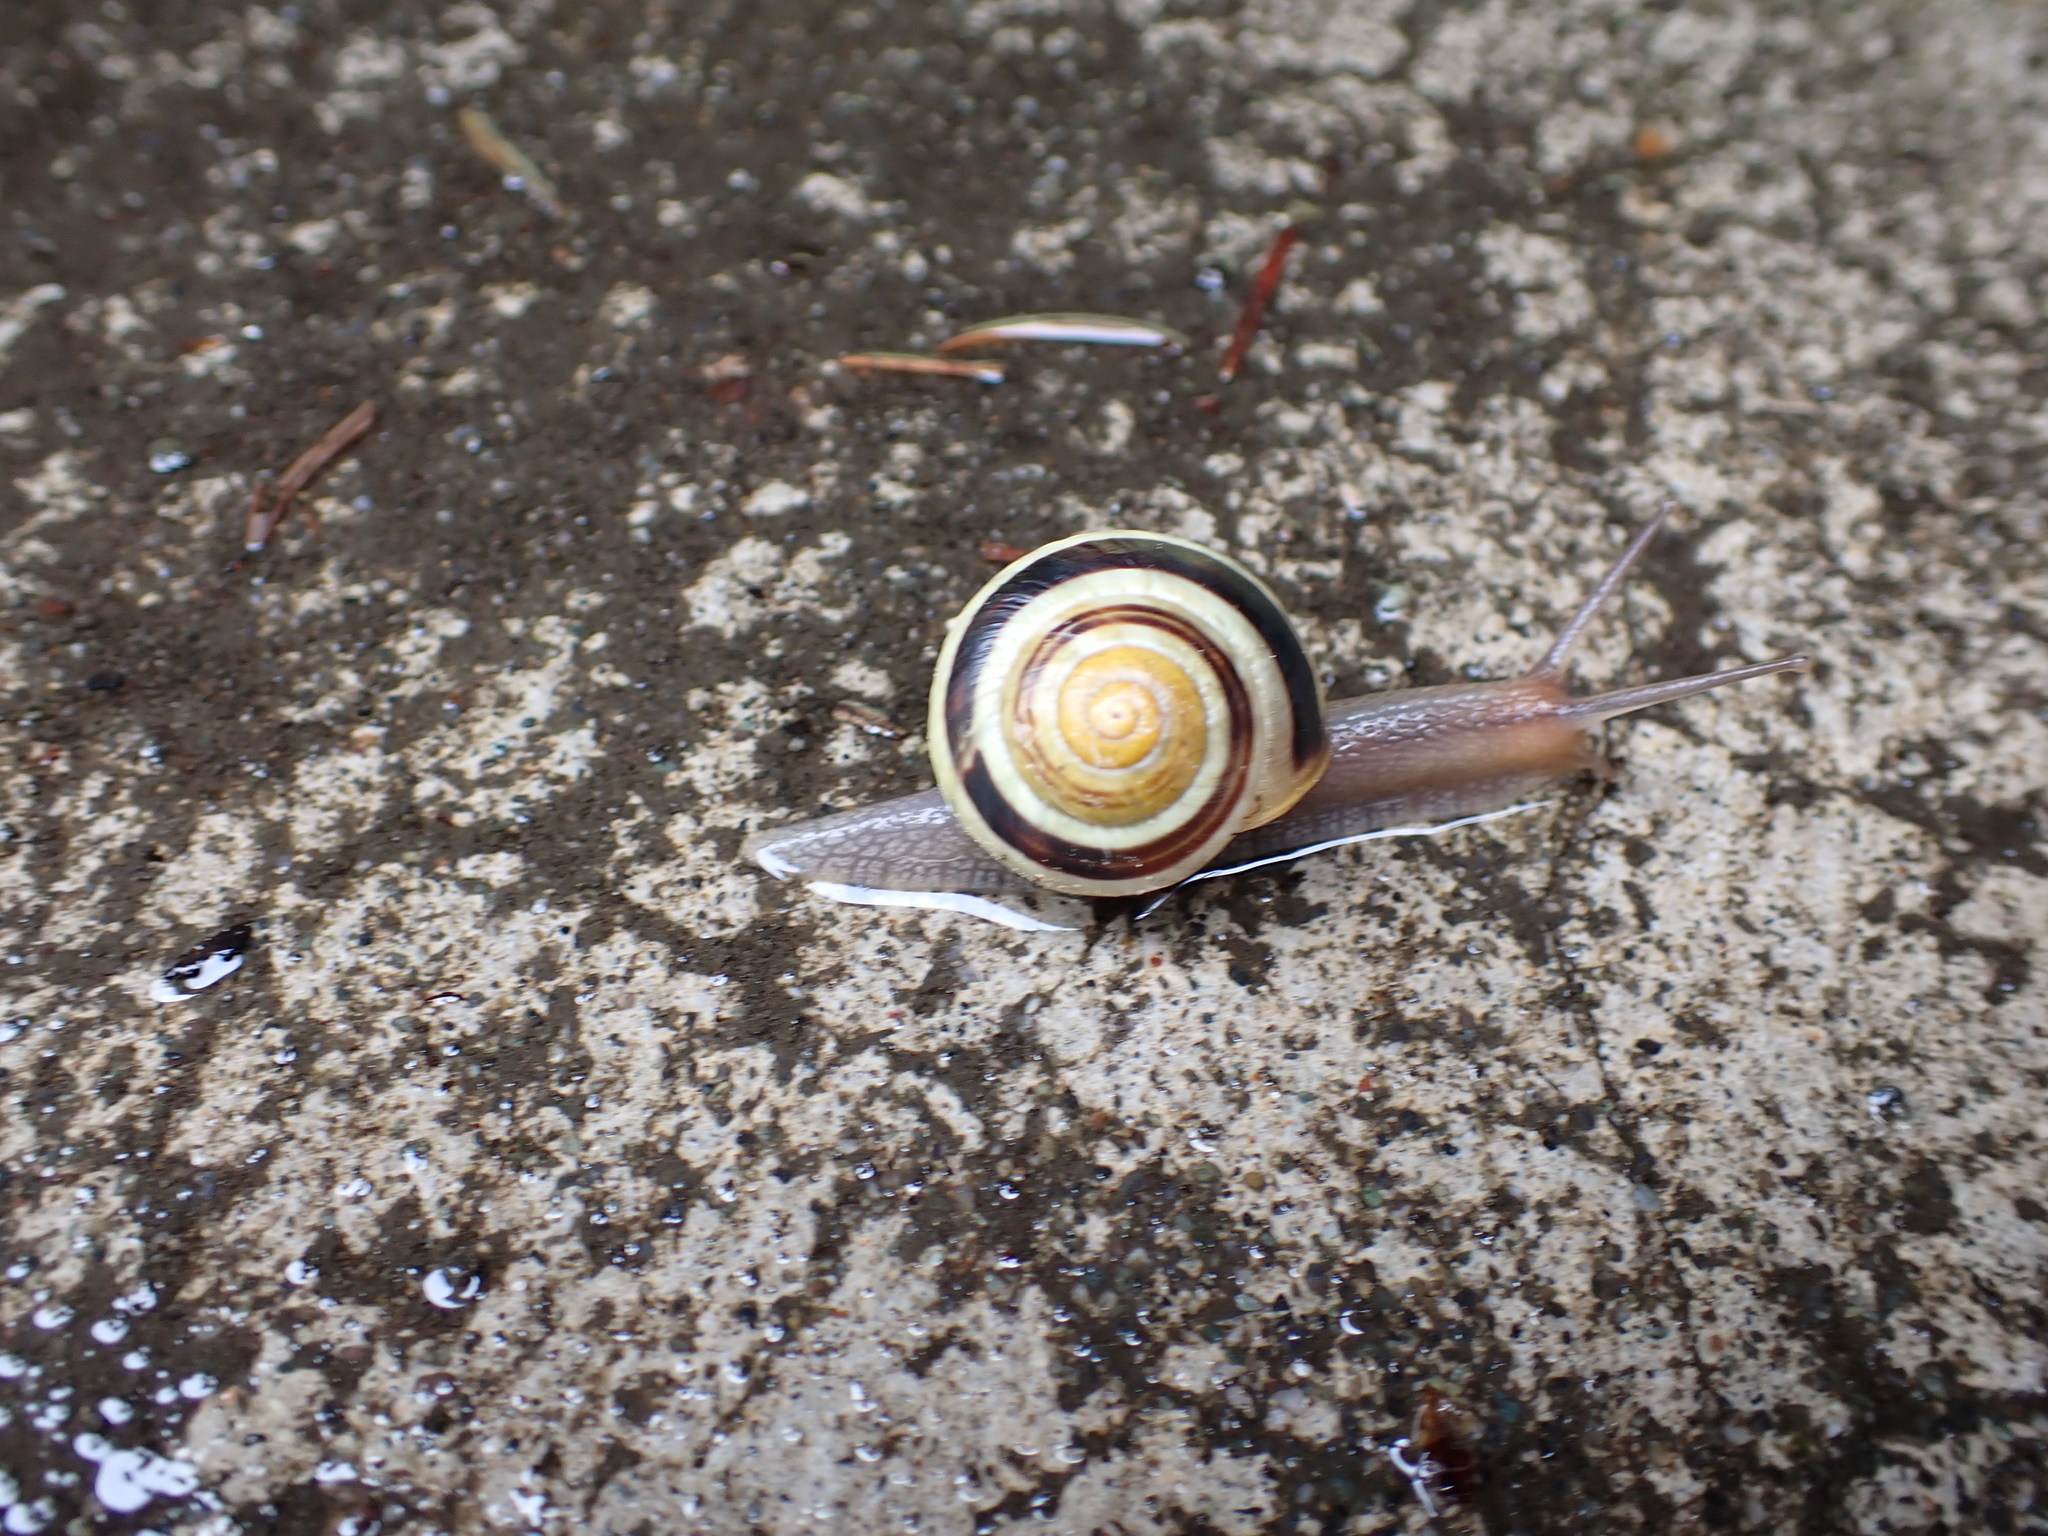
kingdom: Animalia
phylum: Mollusca
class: Gastropoda
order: Stylommatophora
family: Helicidae
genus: Cepaea
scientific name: Cepaea nemoralis
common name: Grovesnail
